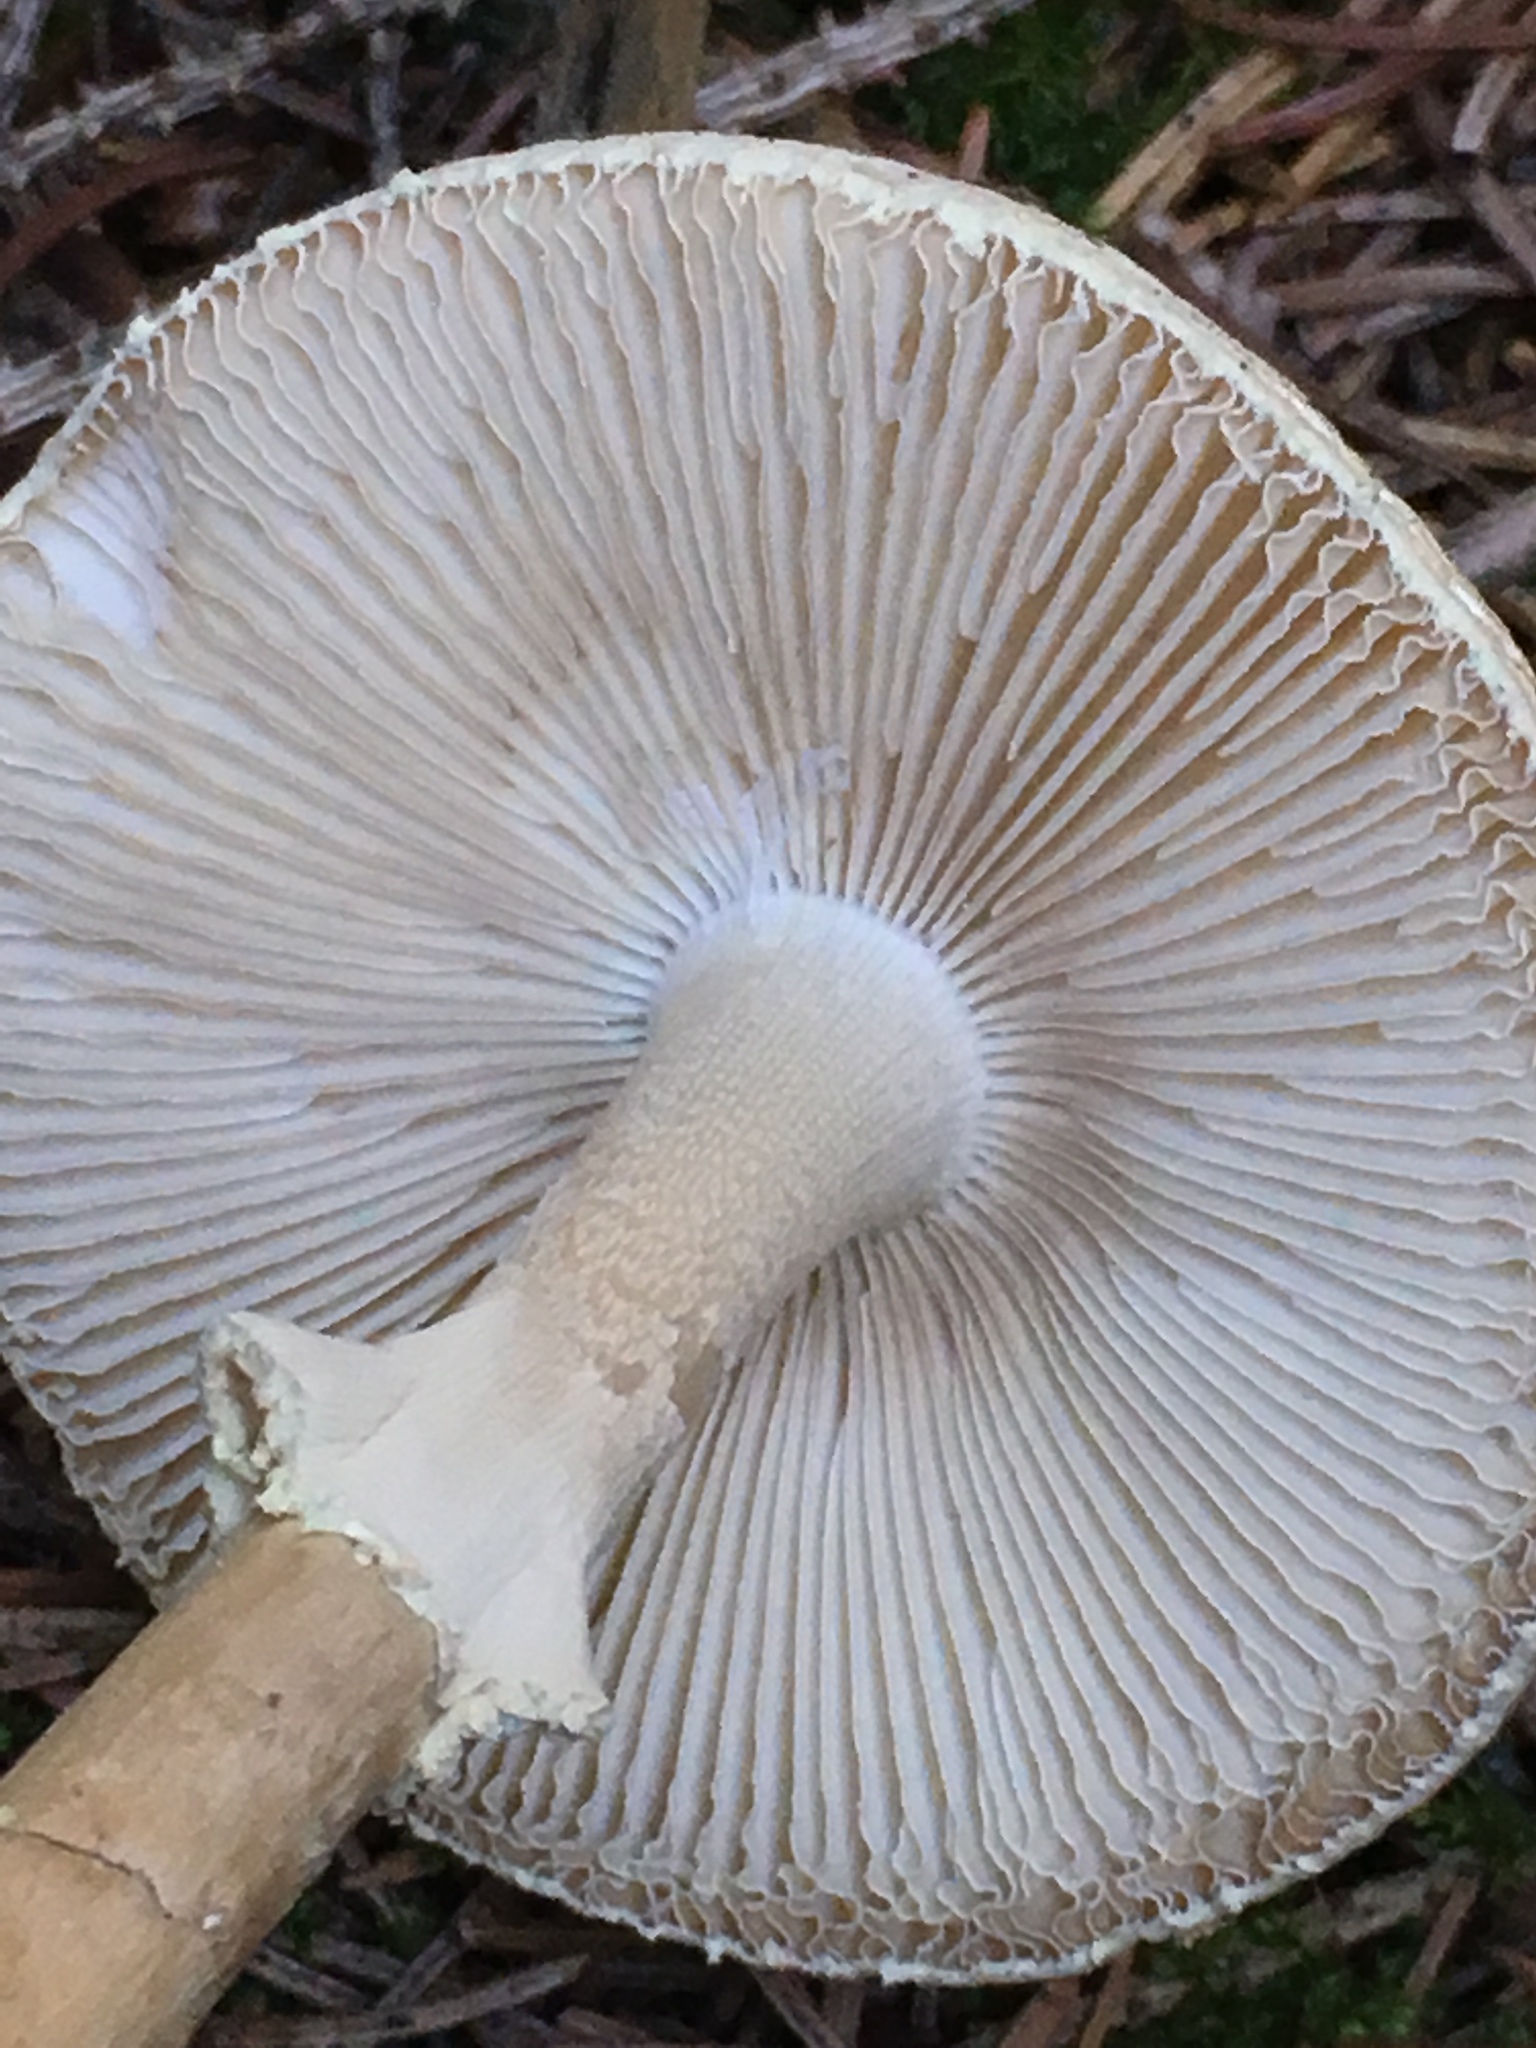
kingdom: Fungi
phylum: Basidiomycota
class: Agaricomycetes
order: Agaricales
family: Amanitaceae
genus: Amanita
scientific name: Amanita citrina
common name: False death-cap
